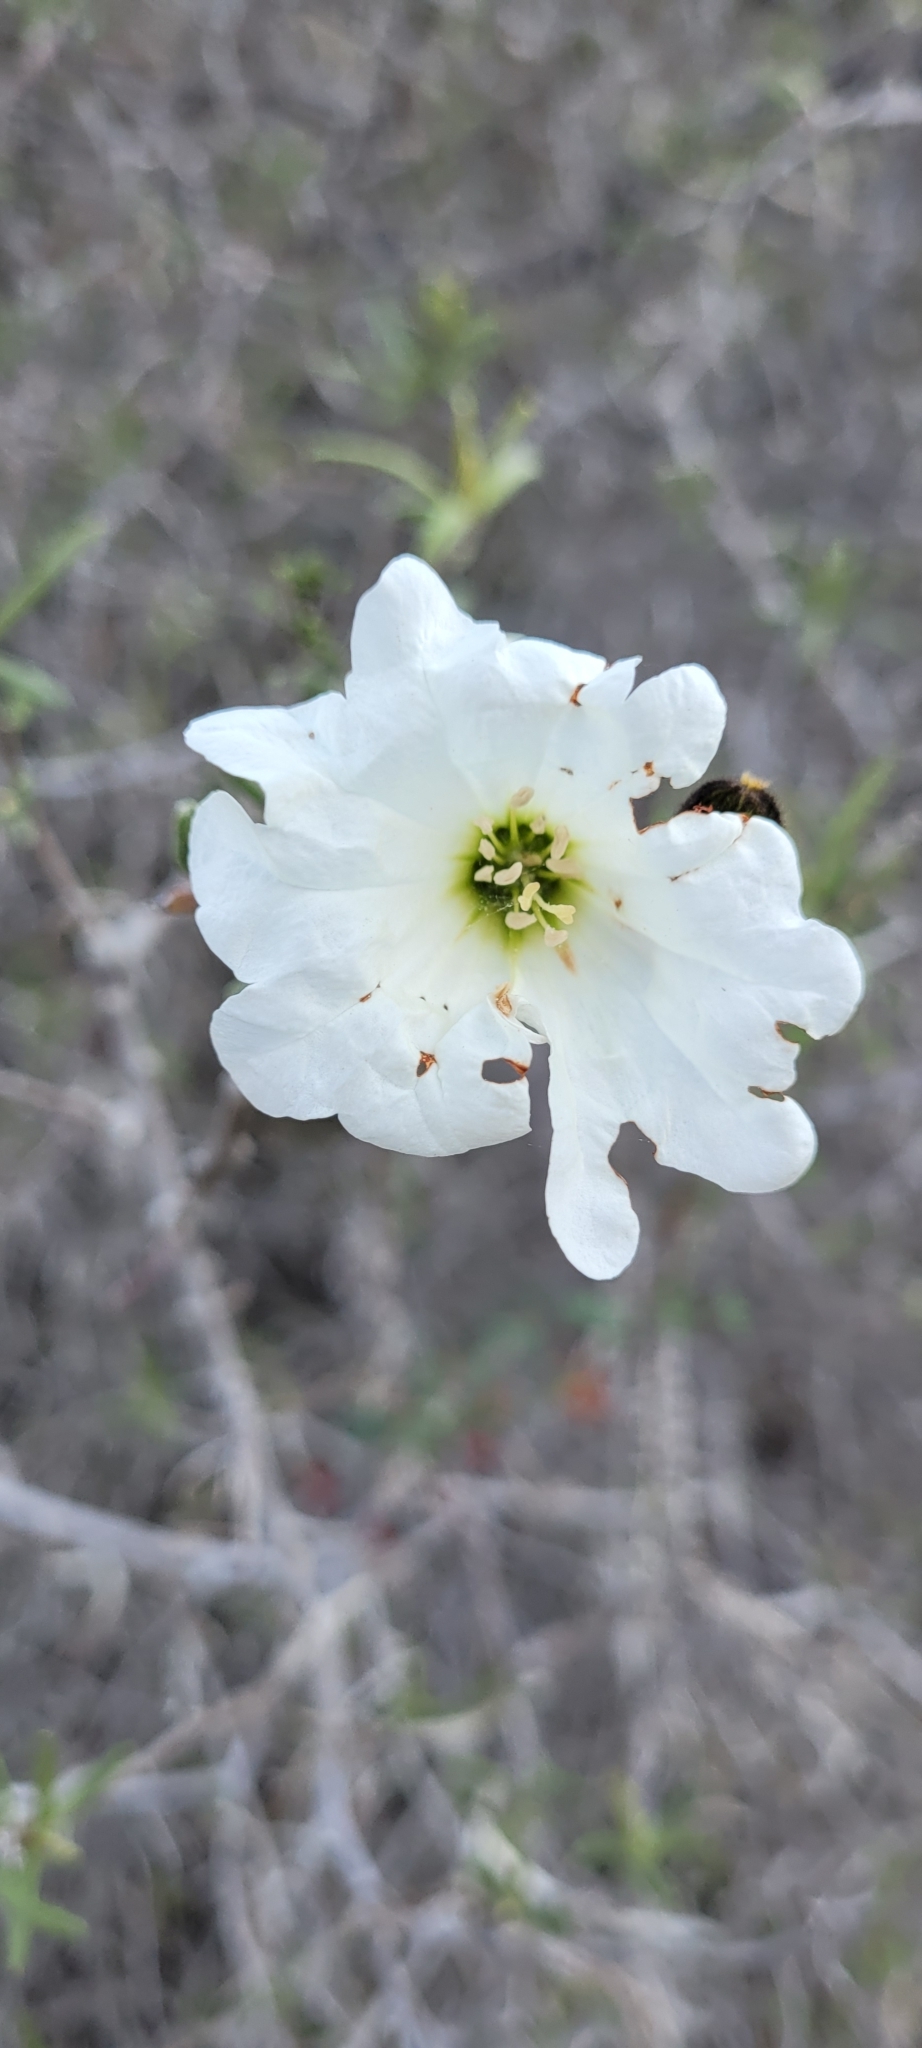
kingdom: Plantae
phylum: Tracheophyta
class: Magnoliopsida
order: Boraginales
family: Cordiaceae
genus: Cordia
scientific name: Cordia decandra
